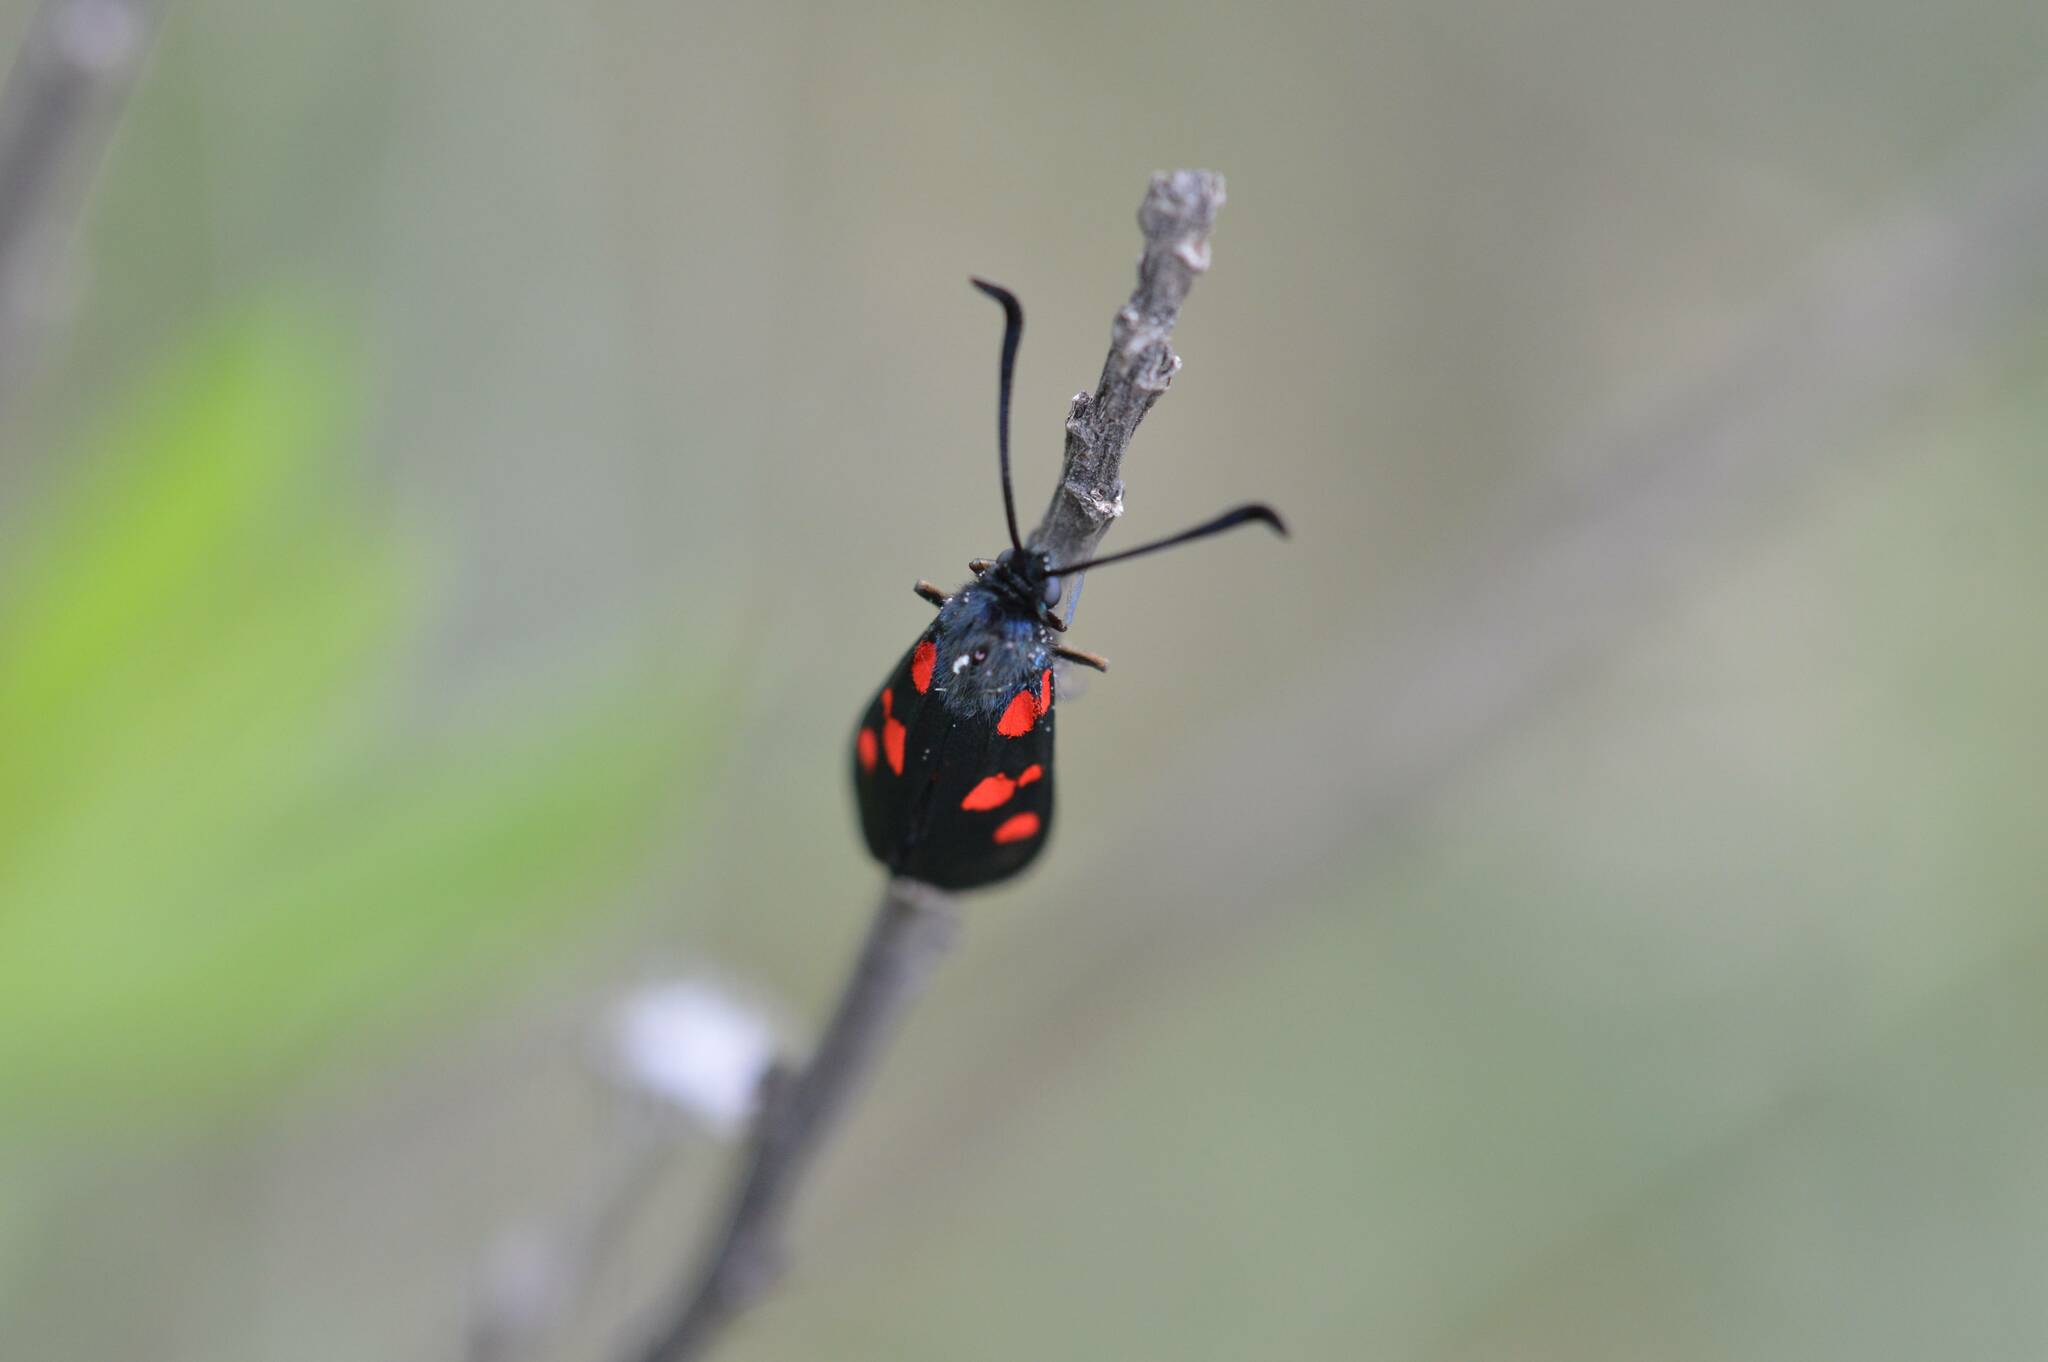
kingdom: Animalia
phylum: Arthropoda
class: Insecta
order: Lepidoptera
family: Zygaenidae
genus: Zygaena
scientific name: Zygaena trifolii
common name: Five-spot burnet
